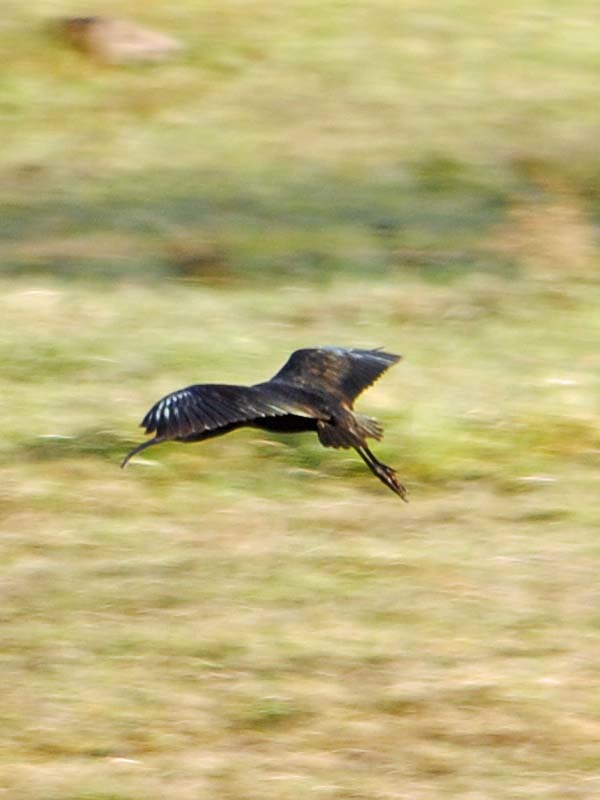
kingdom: Animalia
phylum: Chordata
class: Aves
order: Pelecaniformes
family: Threskiornithidae
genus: Plegadis
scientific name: Plegadis chihi
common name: White-faced ibis
